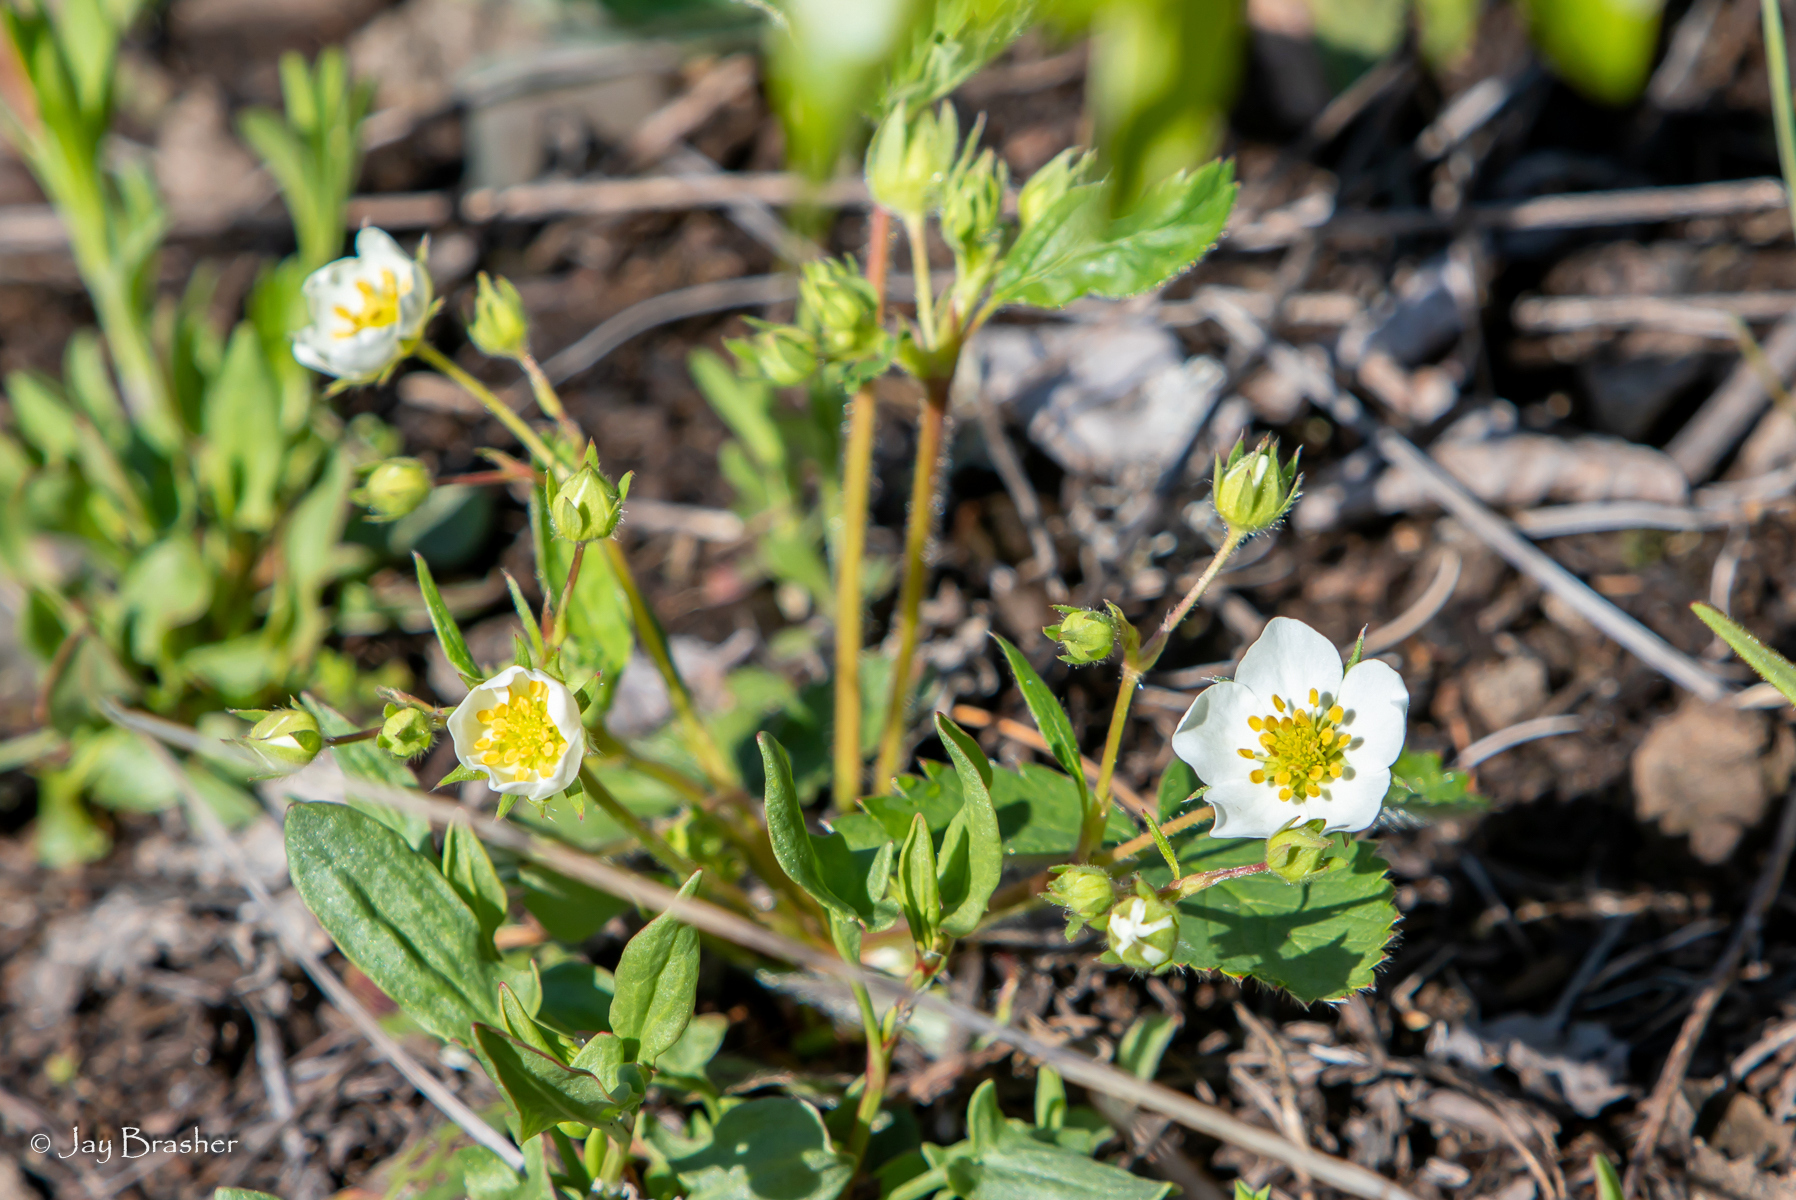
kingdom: Plantae
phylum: Tracheophyta
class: Magnoliopsida
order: Rosales
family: Rosaceae
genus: Fragaria
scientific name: Fragaria virginiana
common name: Thickleaved wild strawberry
